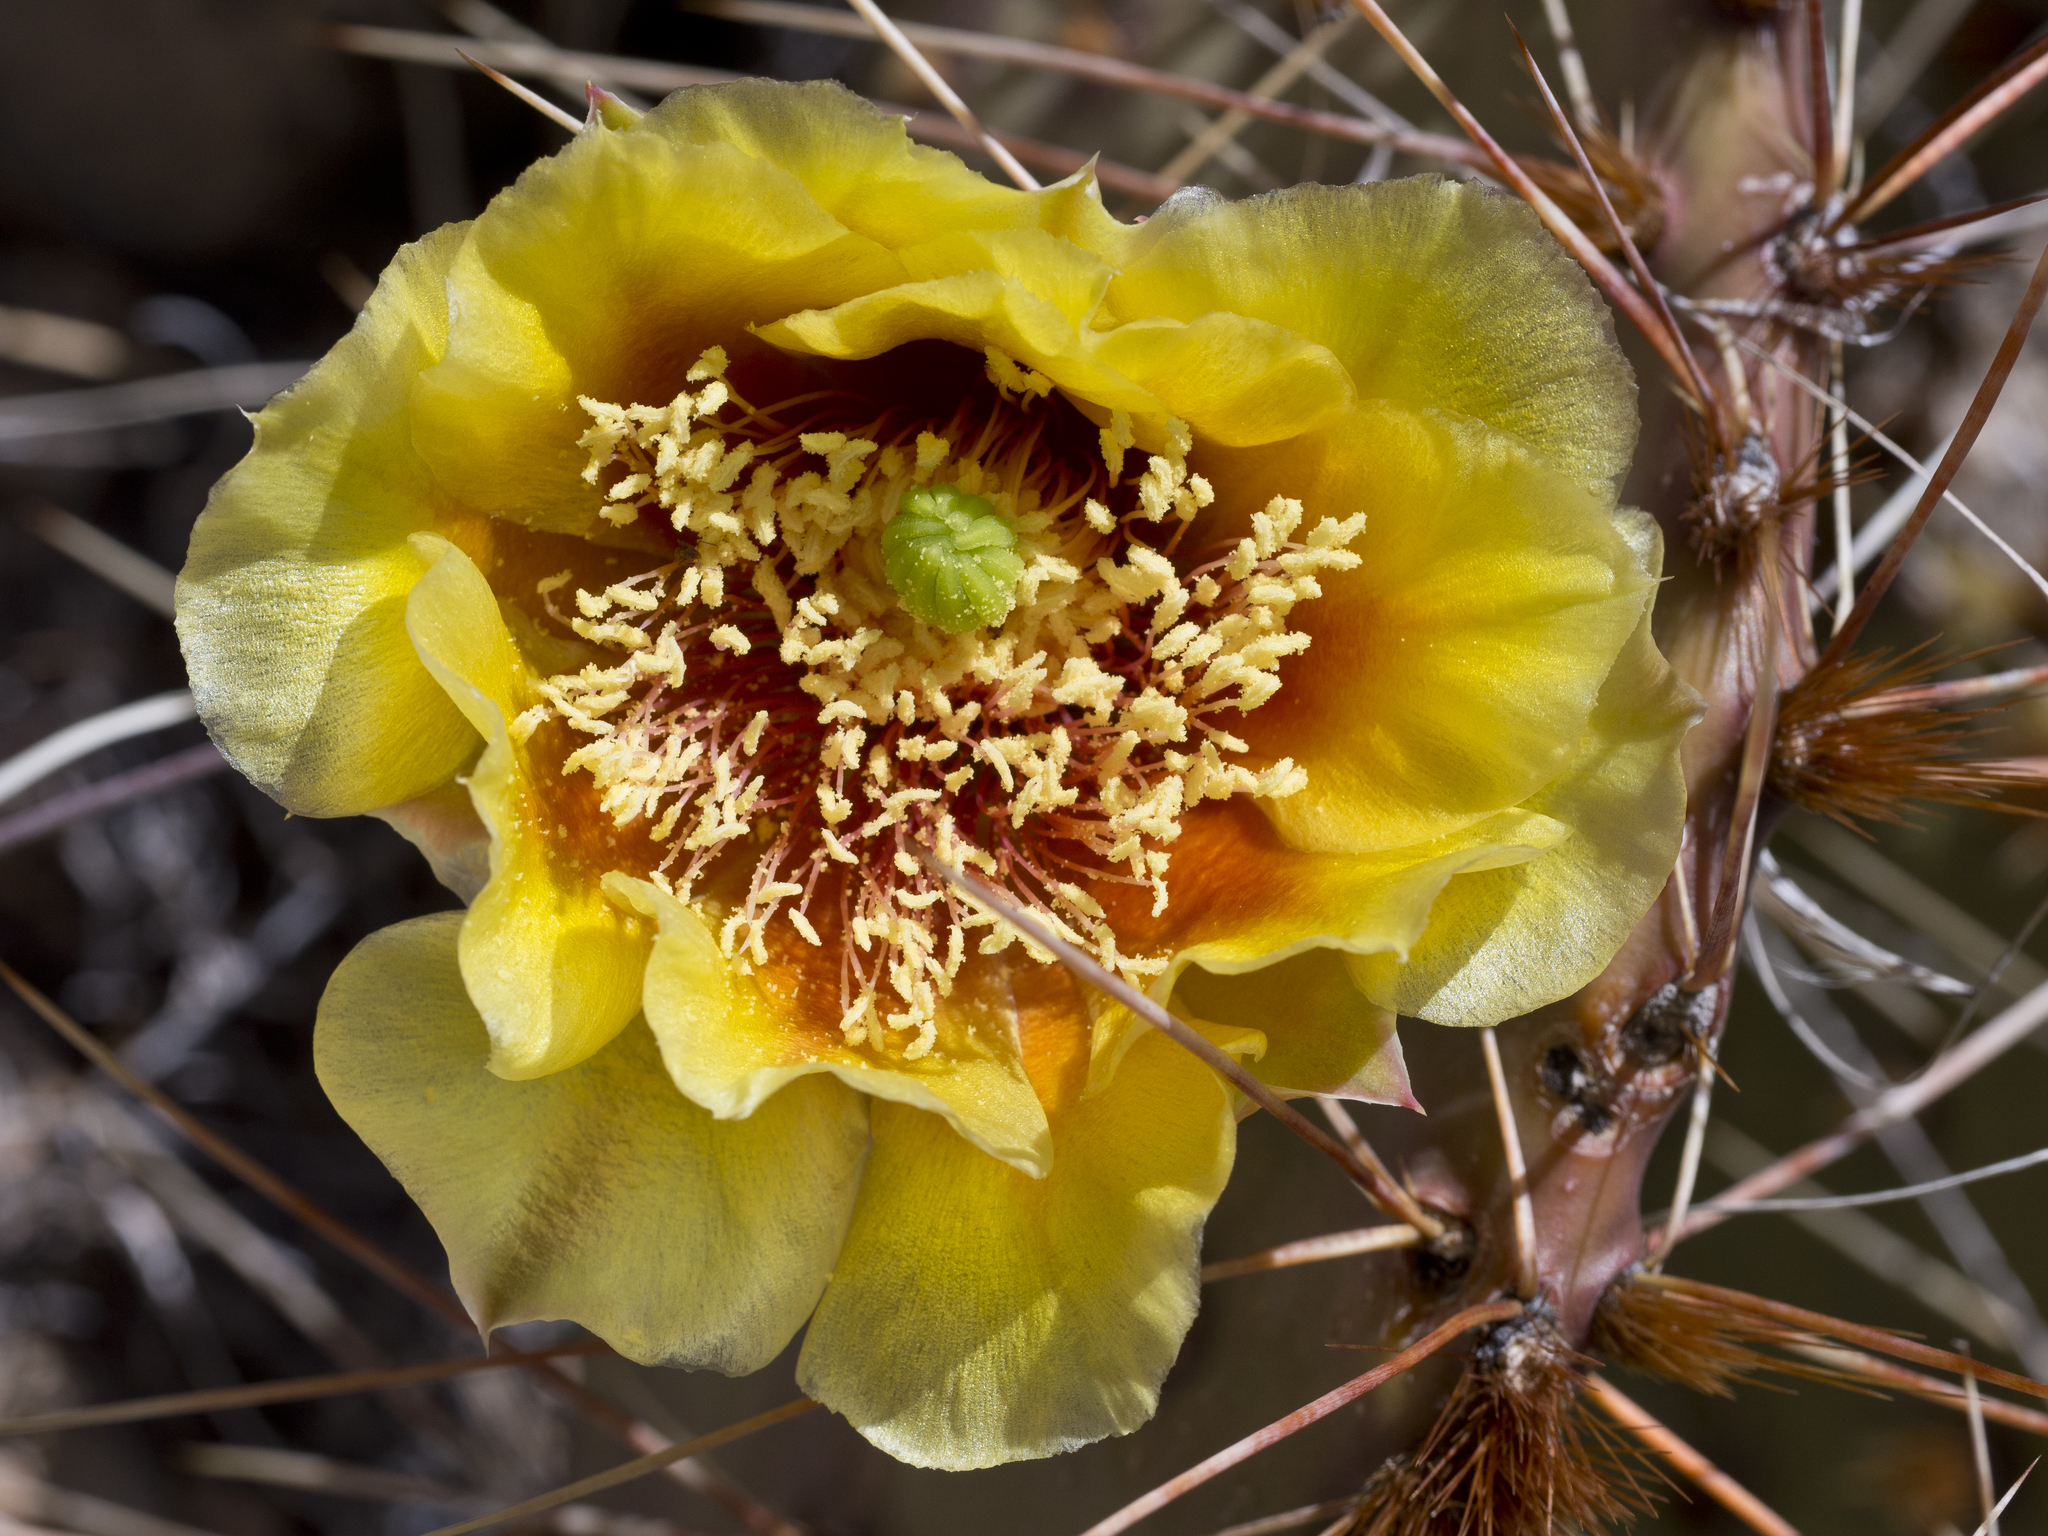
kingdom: Plantae
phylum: Tracheophyta
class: Magnoliopsida
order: Caryophyllales
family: Cactaceae
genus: Opuntia
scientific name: Opuntia phaeacantha
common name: New mexico prickly-pear
